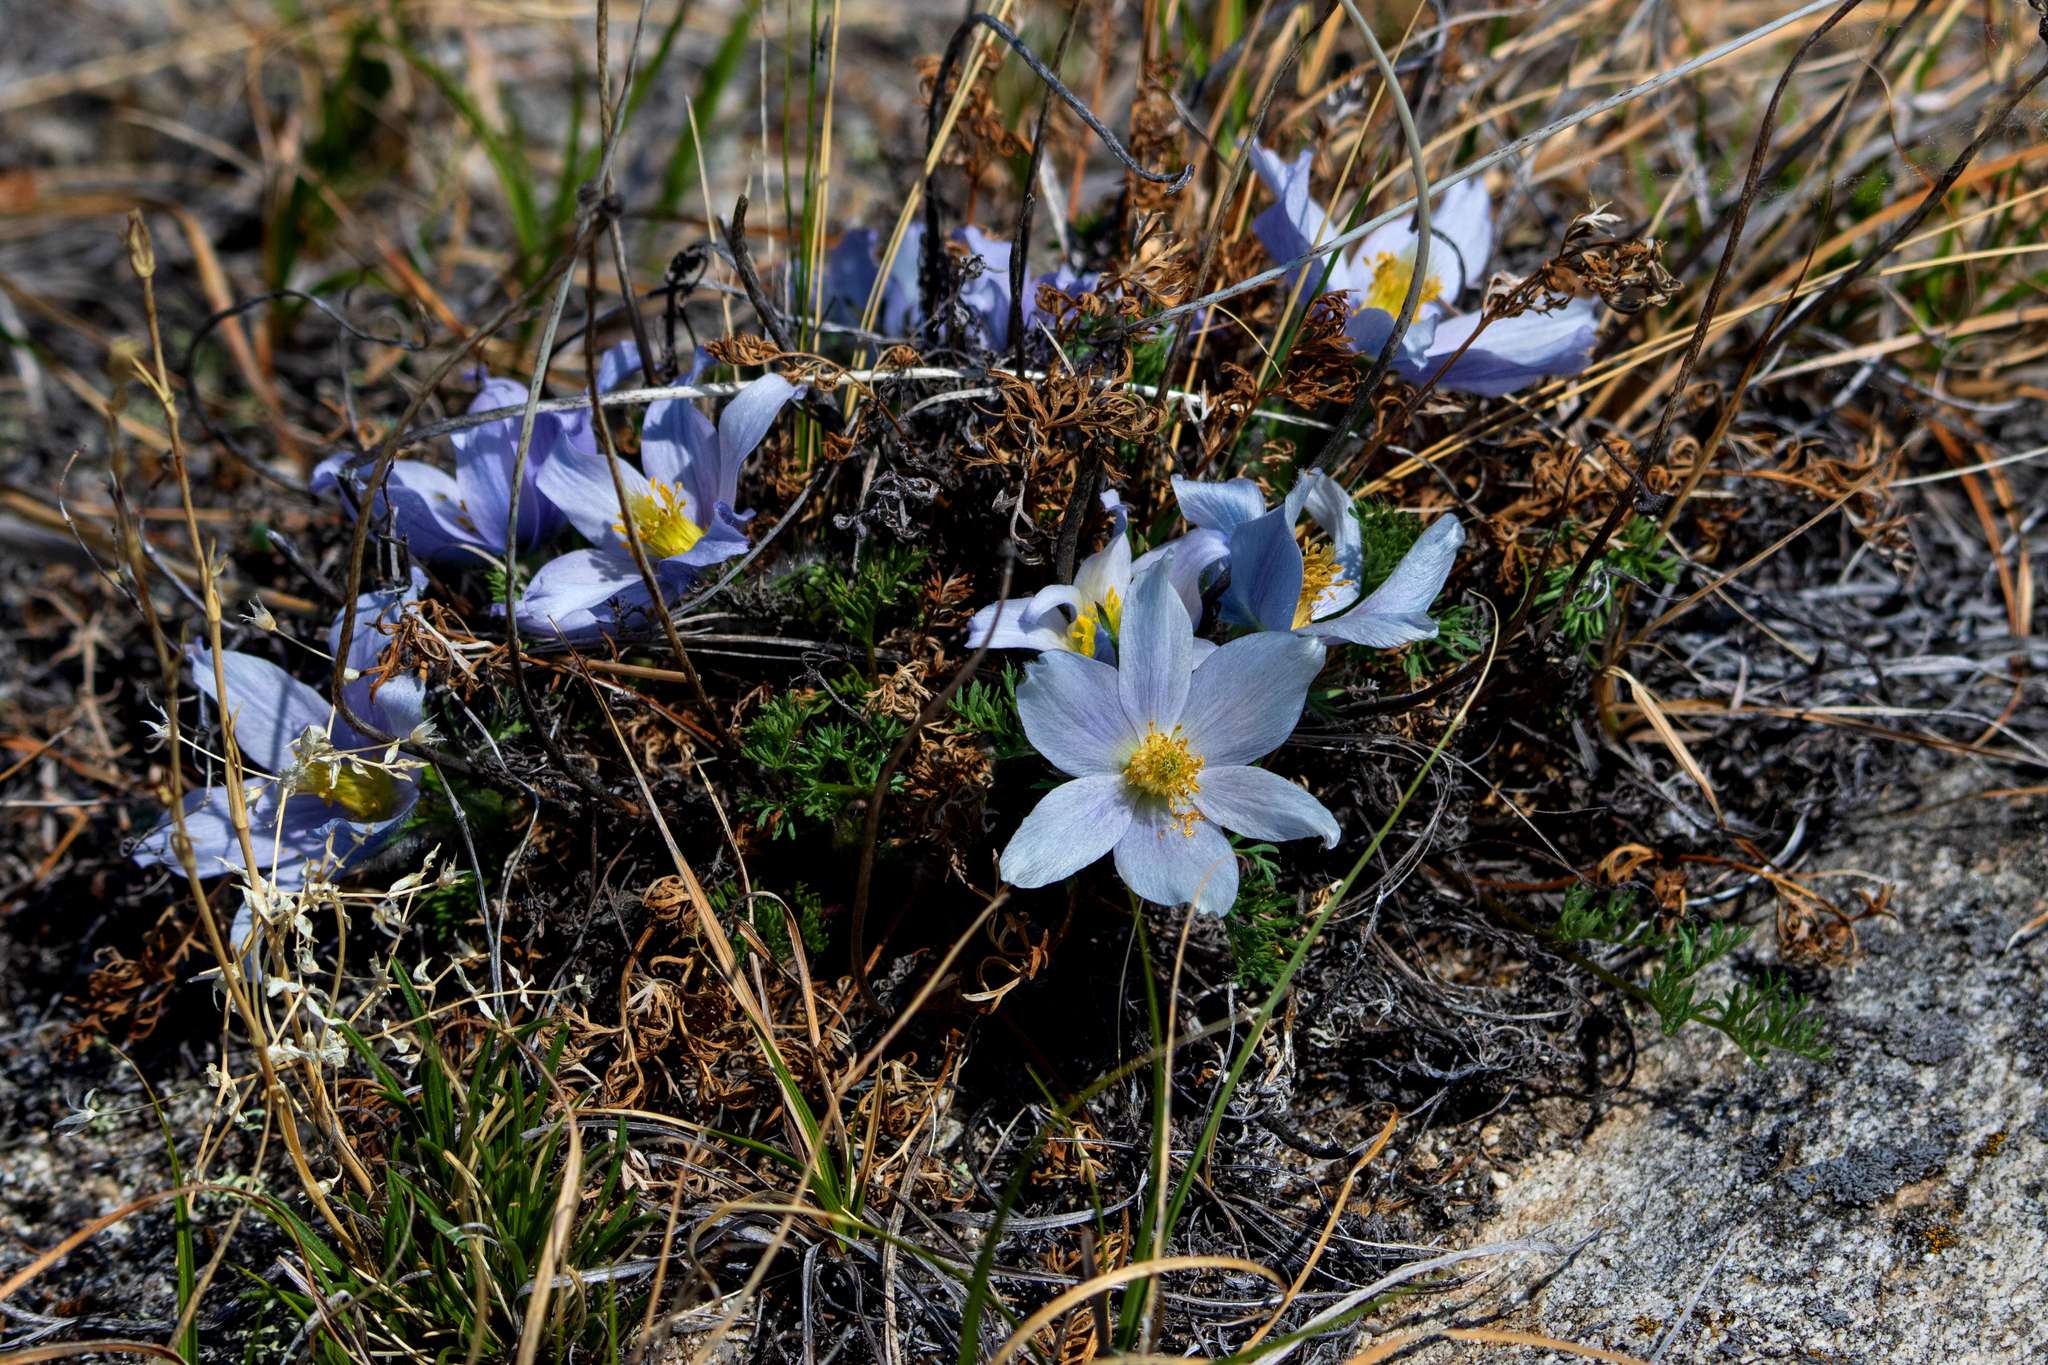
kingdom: Plantae
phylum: Tracheophyta
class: Magnoliopsida
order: Ranunculales
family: Ranunculaceae
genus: Pulsatilla
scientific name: Pulsatilla tenuiloba
